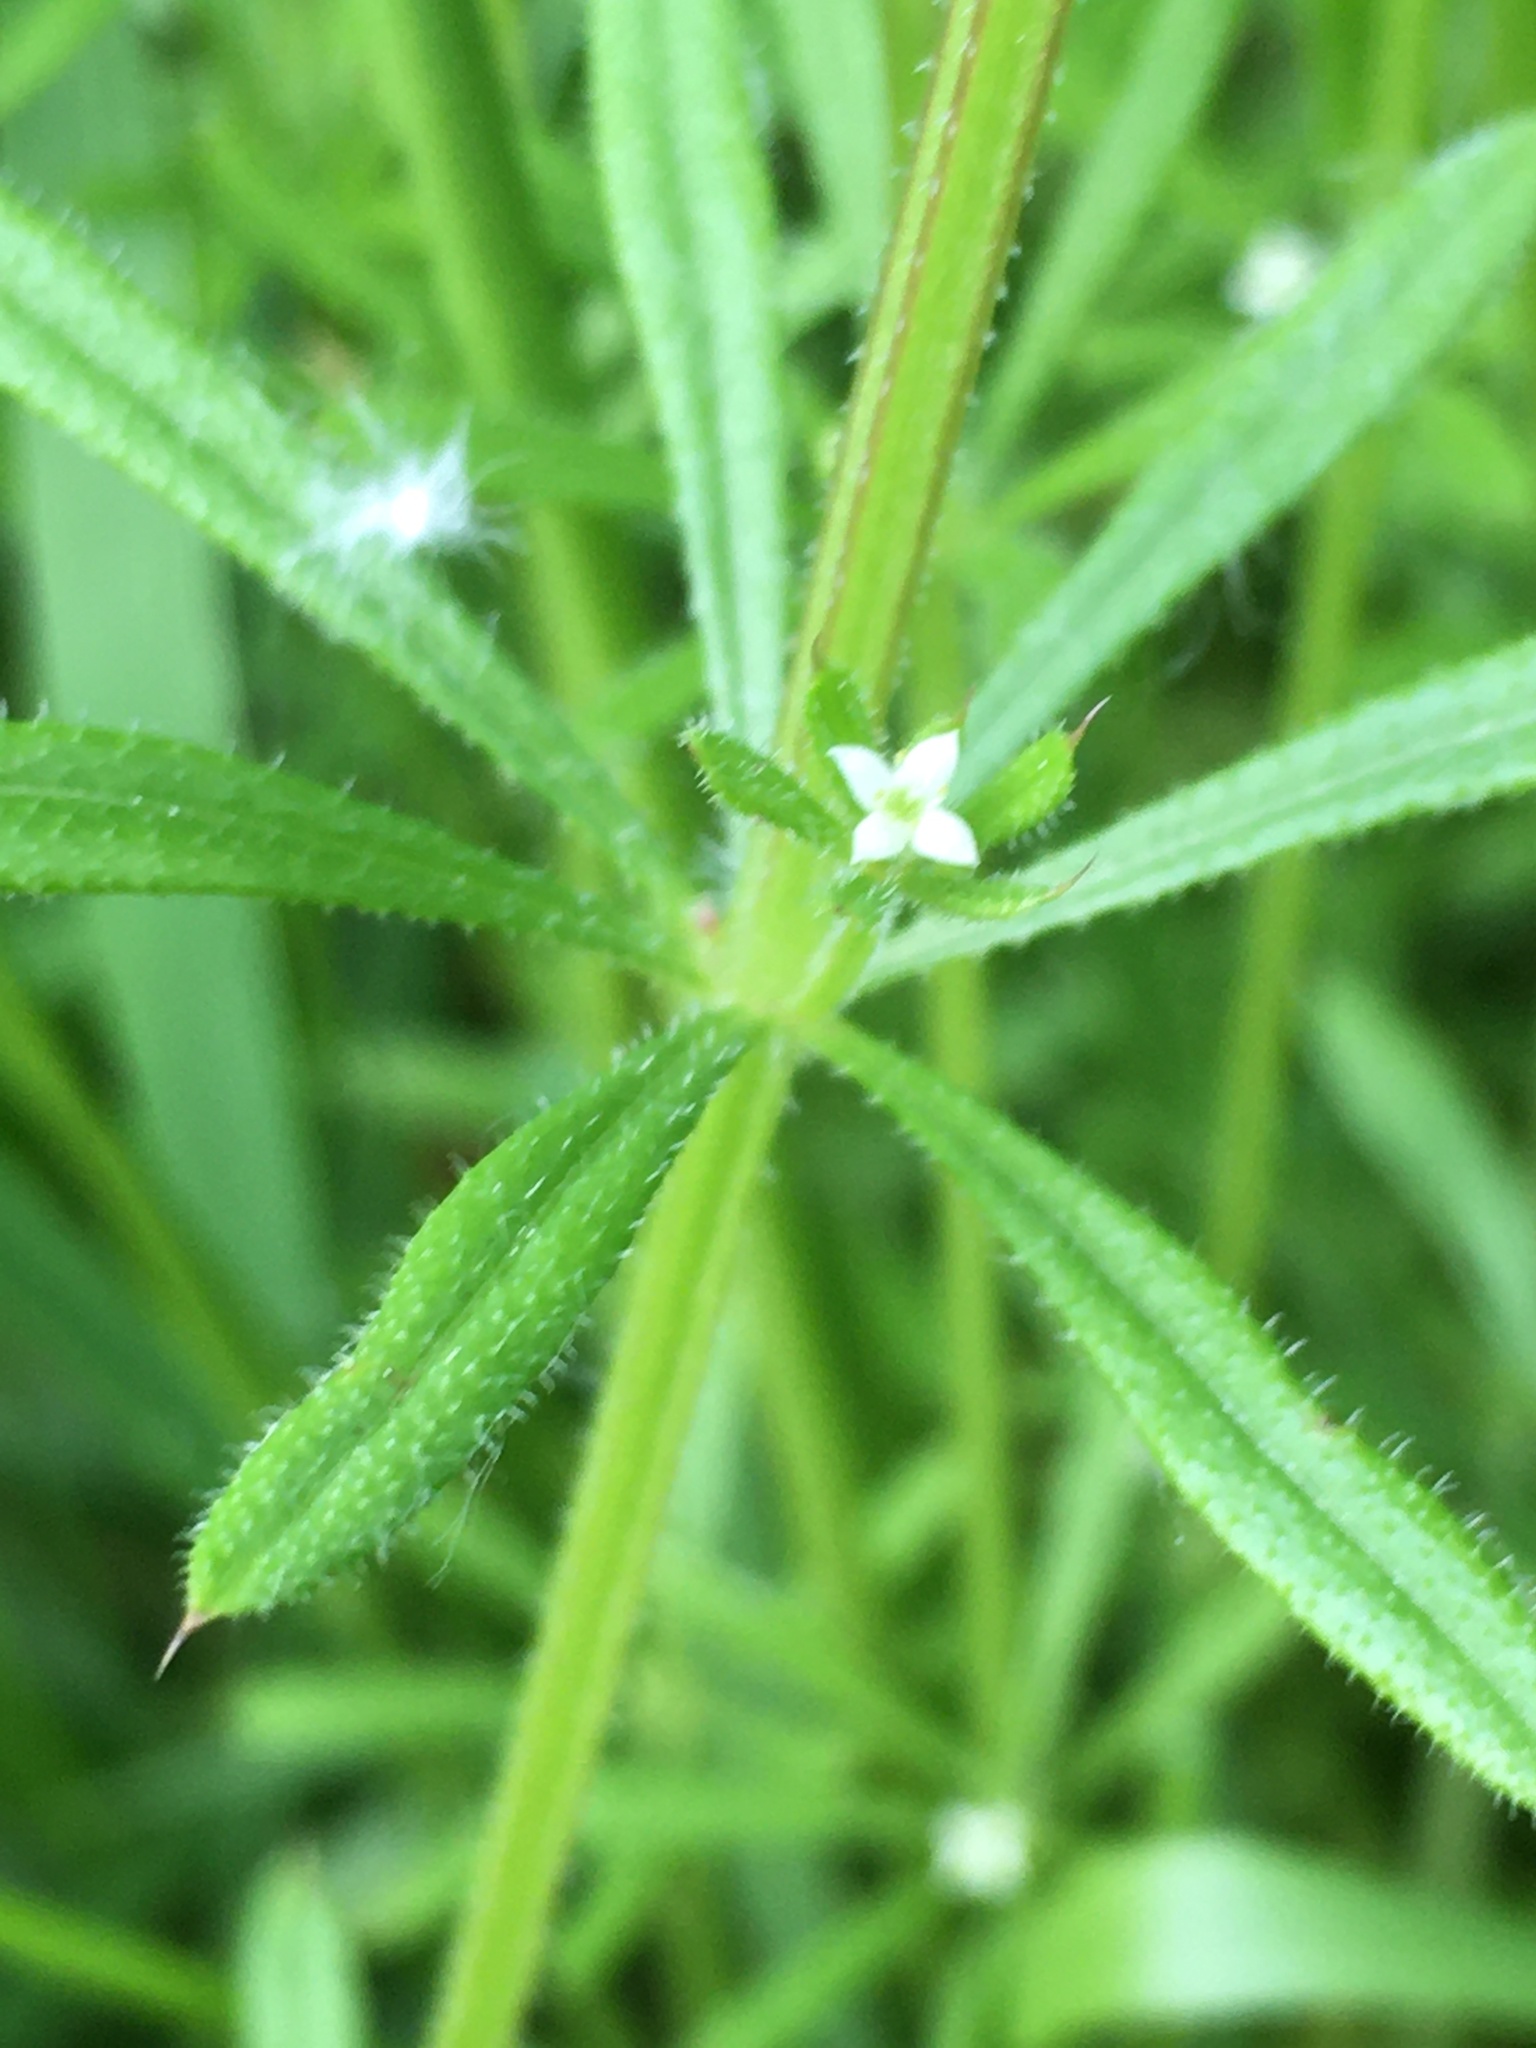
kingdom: Plantae
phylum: Tracheophyta
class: Magnoliopsida
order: Gentianales
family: Rubiaceae
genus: Galium
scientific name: Galium aparine
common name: Cleavers
